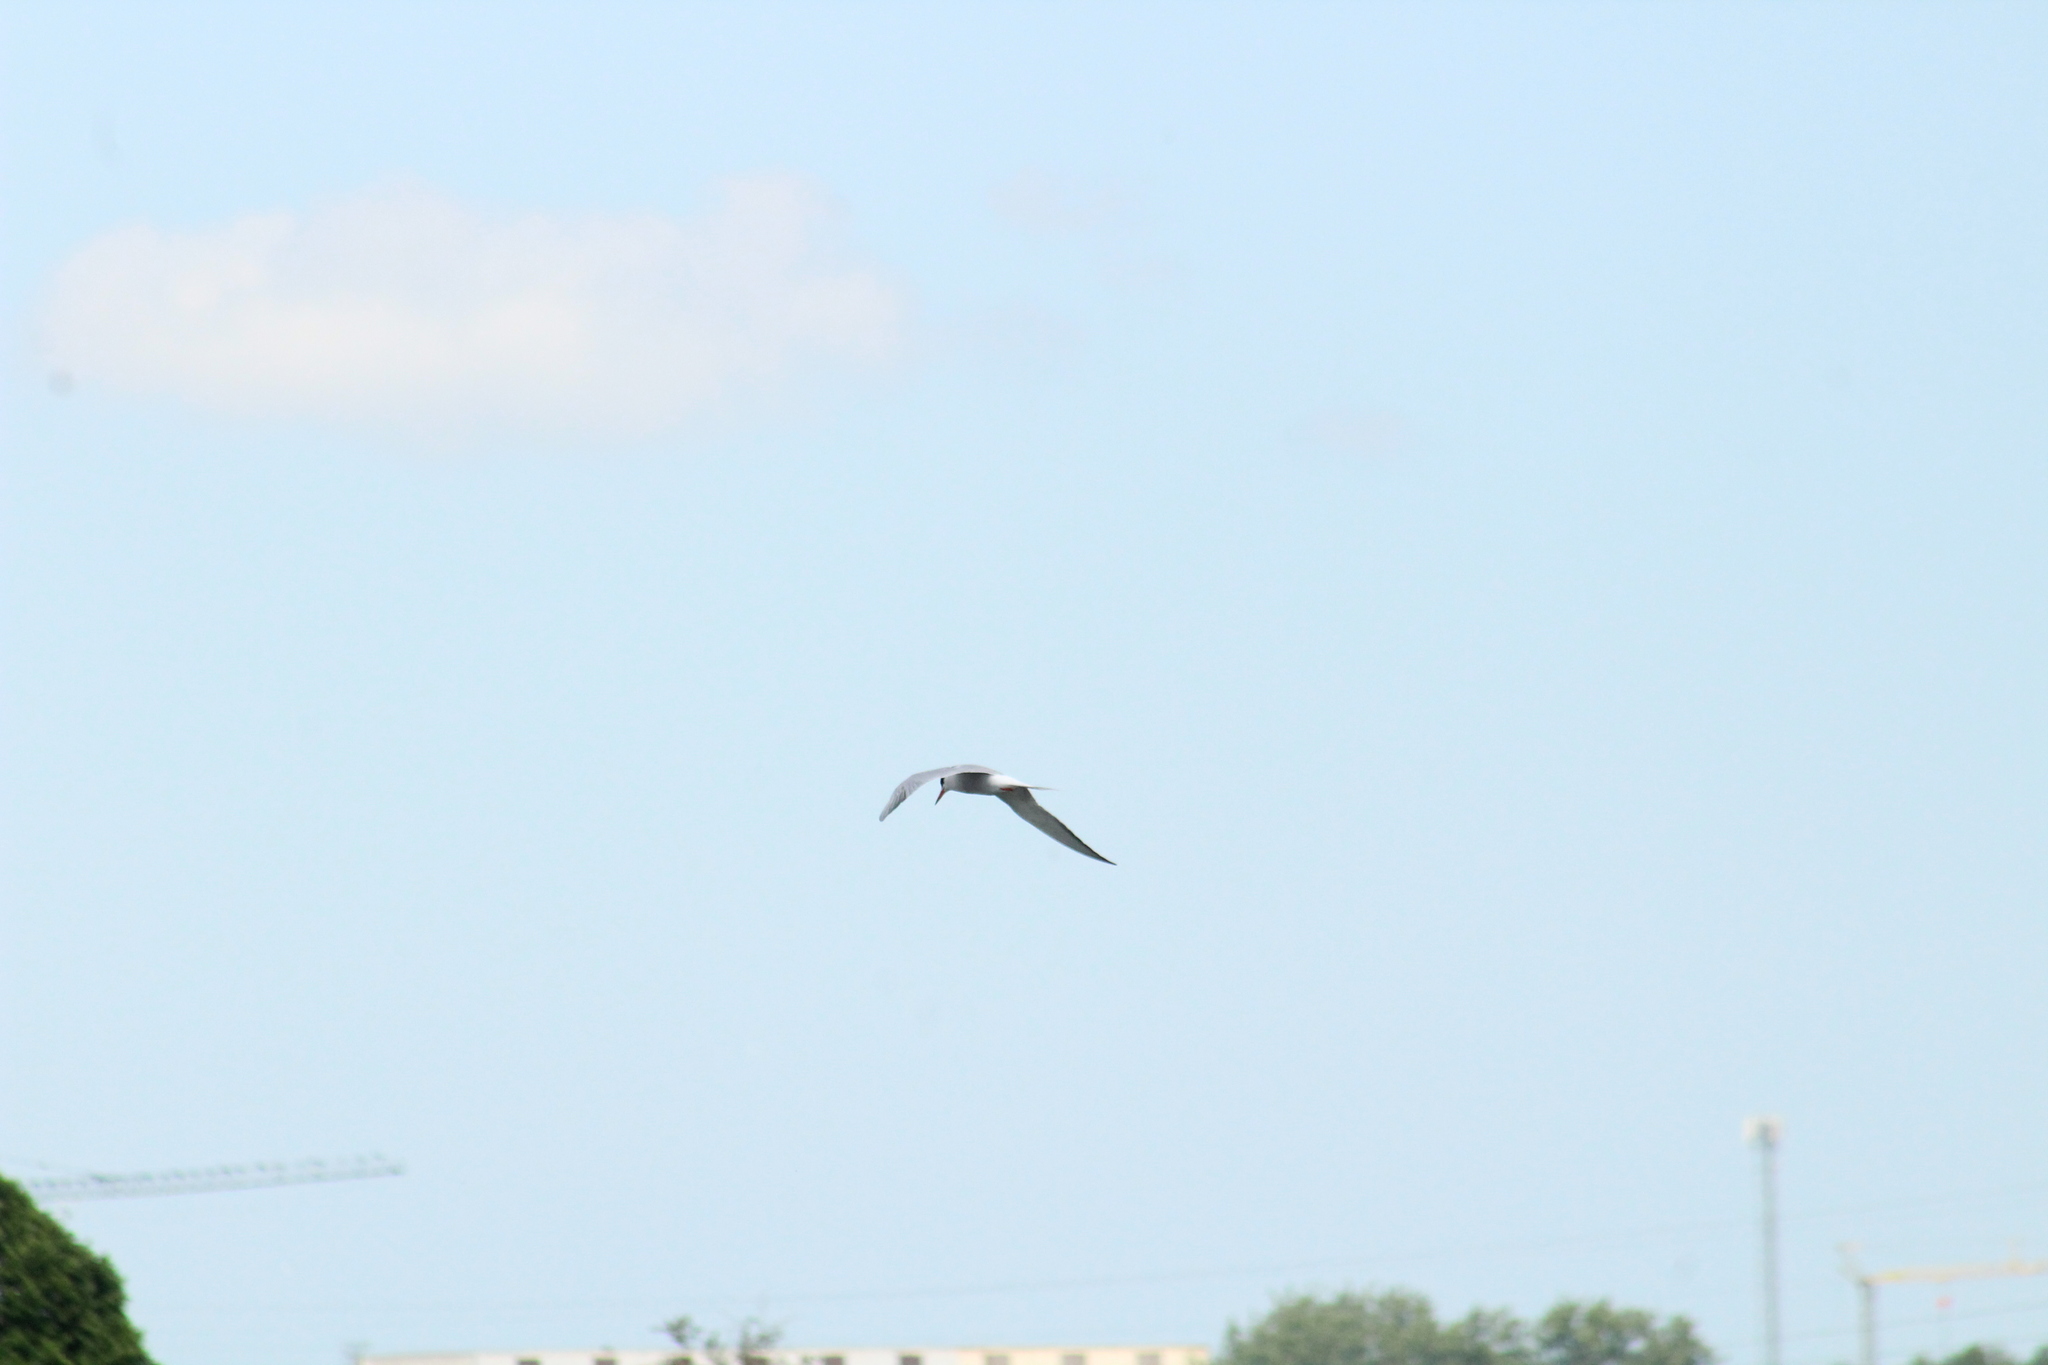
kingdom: Animalia
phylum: Chordata
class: Aves
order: Charadriiformes
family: Laridae
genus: Sterna
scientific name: Sterna hirundo
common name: Common tern
